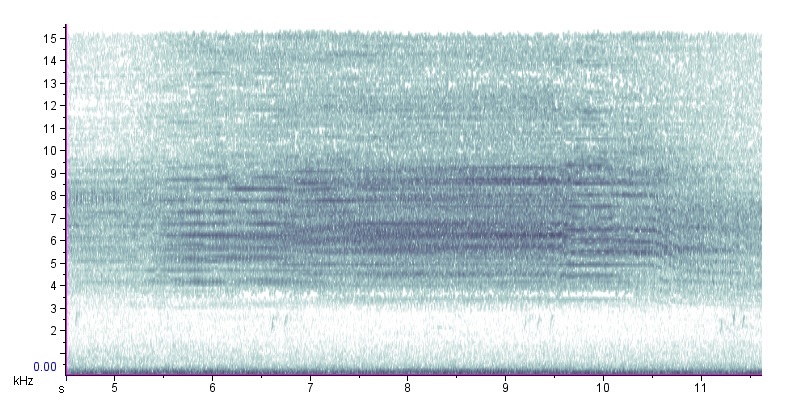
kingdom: Animalia
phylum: Arthropoda
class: Insecta
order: Hemiptera
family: Cicadidae
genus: Neotibicen
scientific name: Neotibicen davisi
